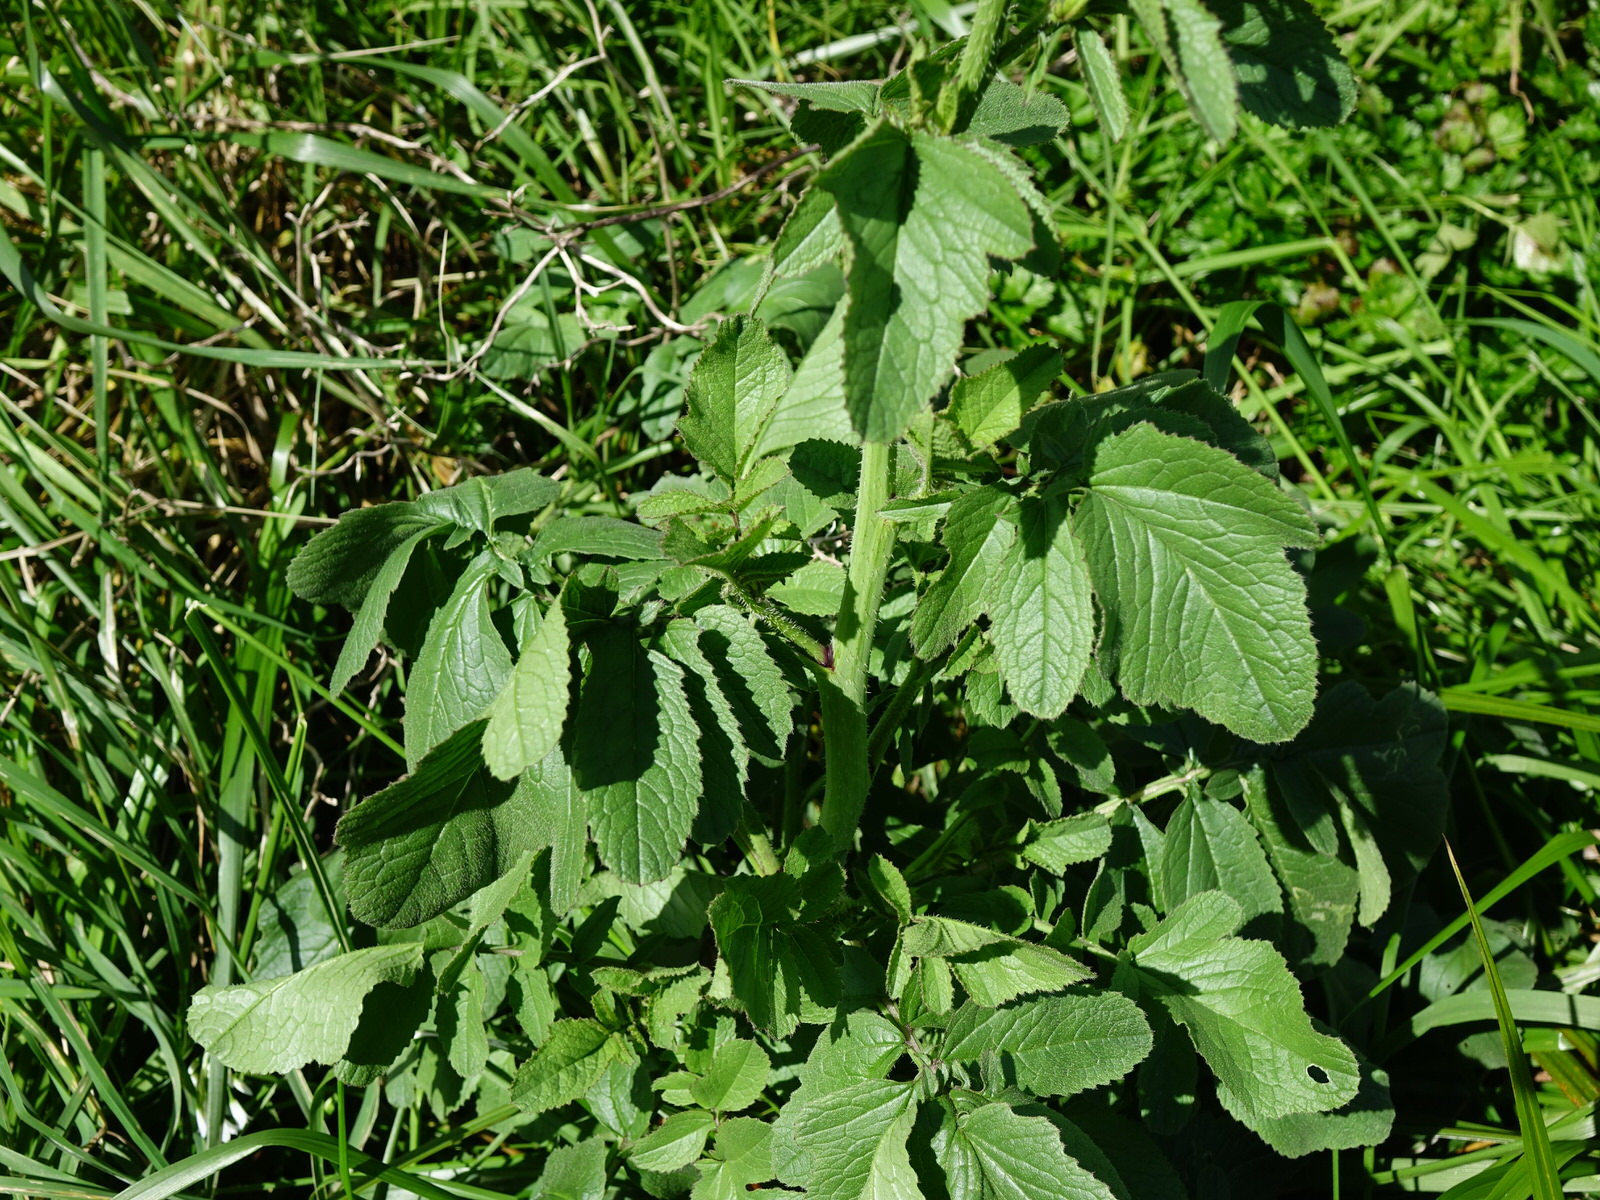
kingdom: Plantae
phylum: Tracheophyta
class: Magnoliopsida
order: Brassicales
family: Brassicaceae
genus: Raphanus
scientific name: Raphanus raphanistrum
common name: Wild radish
